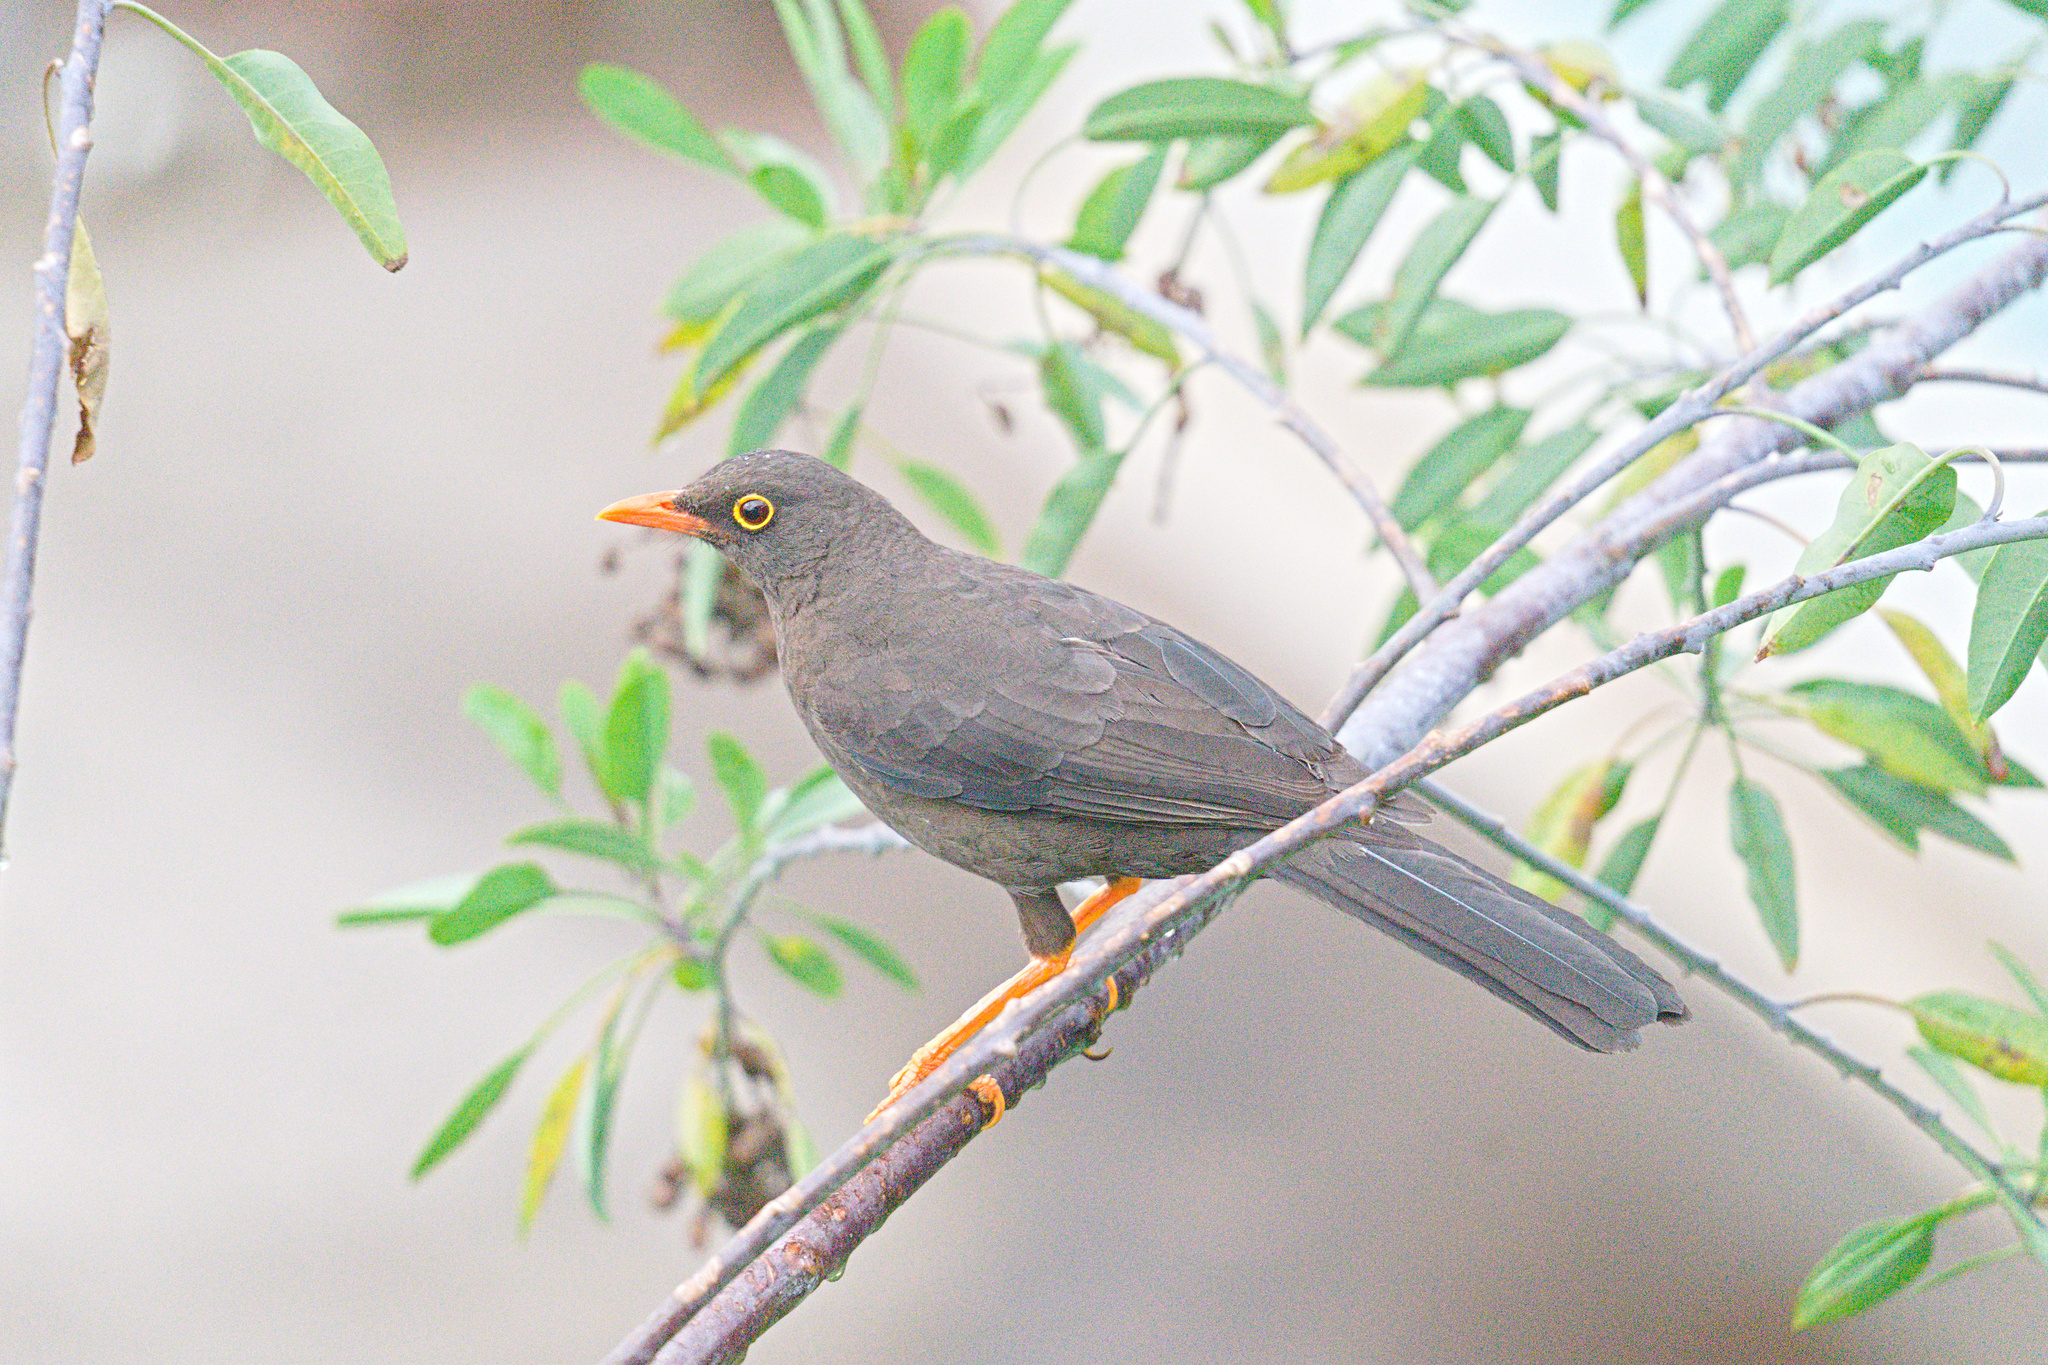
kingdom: Animalia
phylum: Chordata
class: Aves
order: Passeriformes
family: Turdidae
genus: Turdus
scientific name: Turdus fuscater
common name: Great thrush
